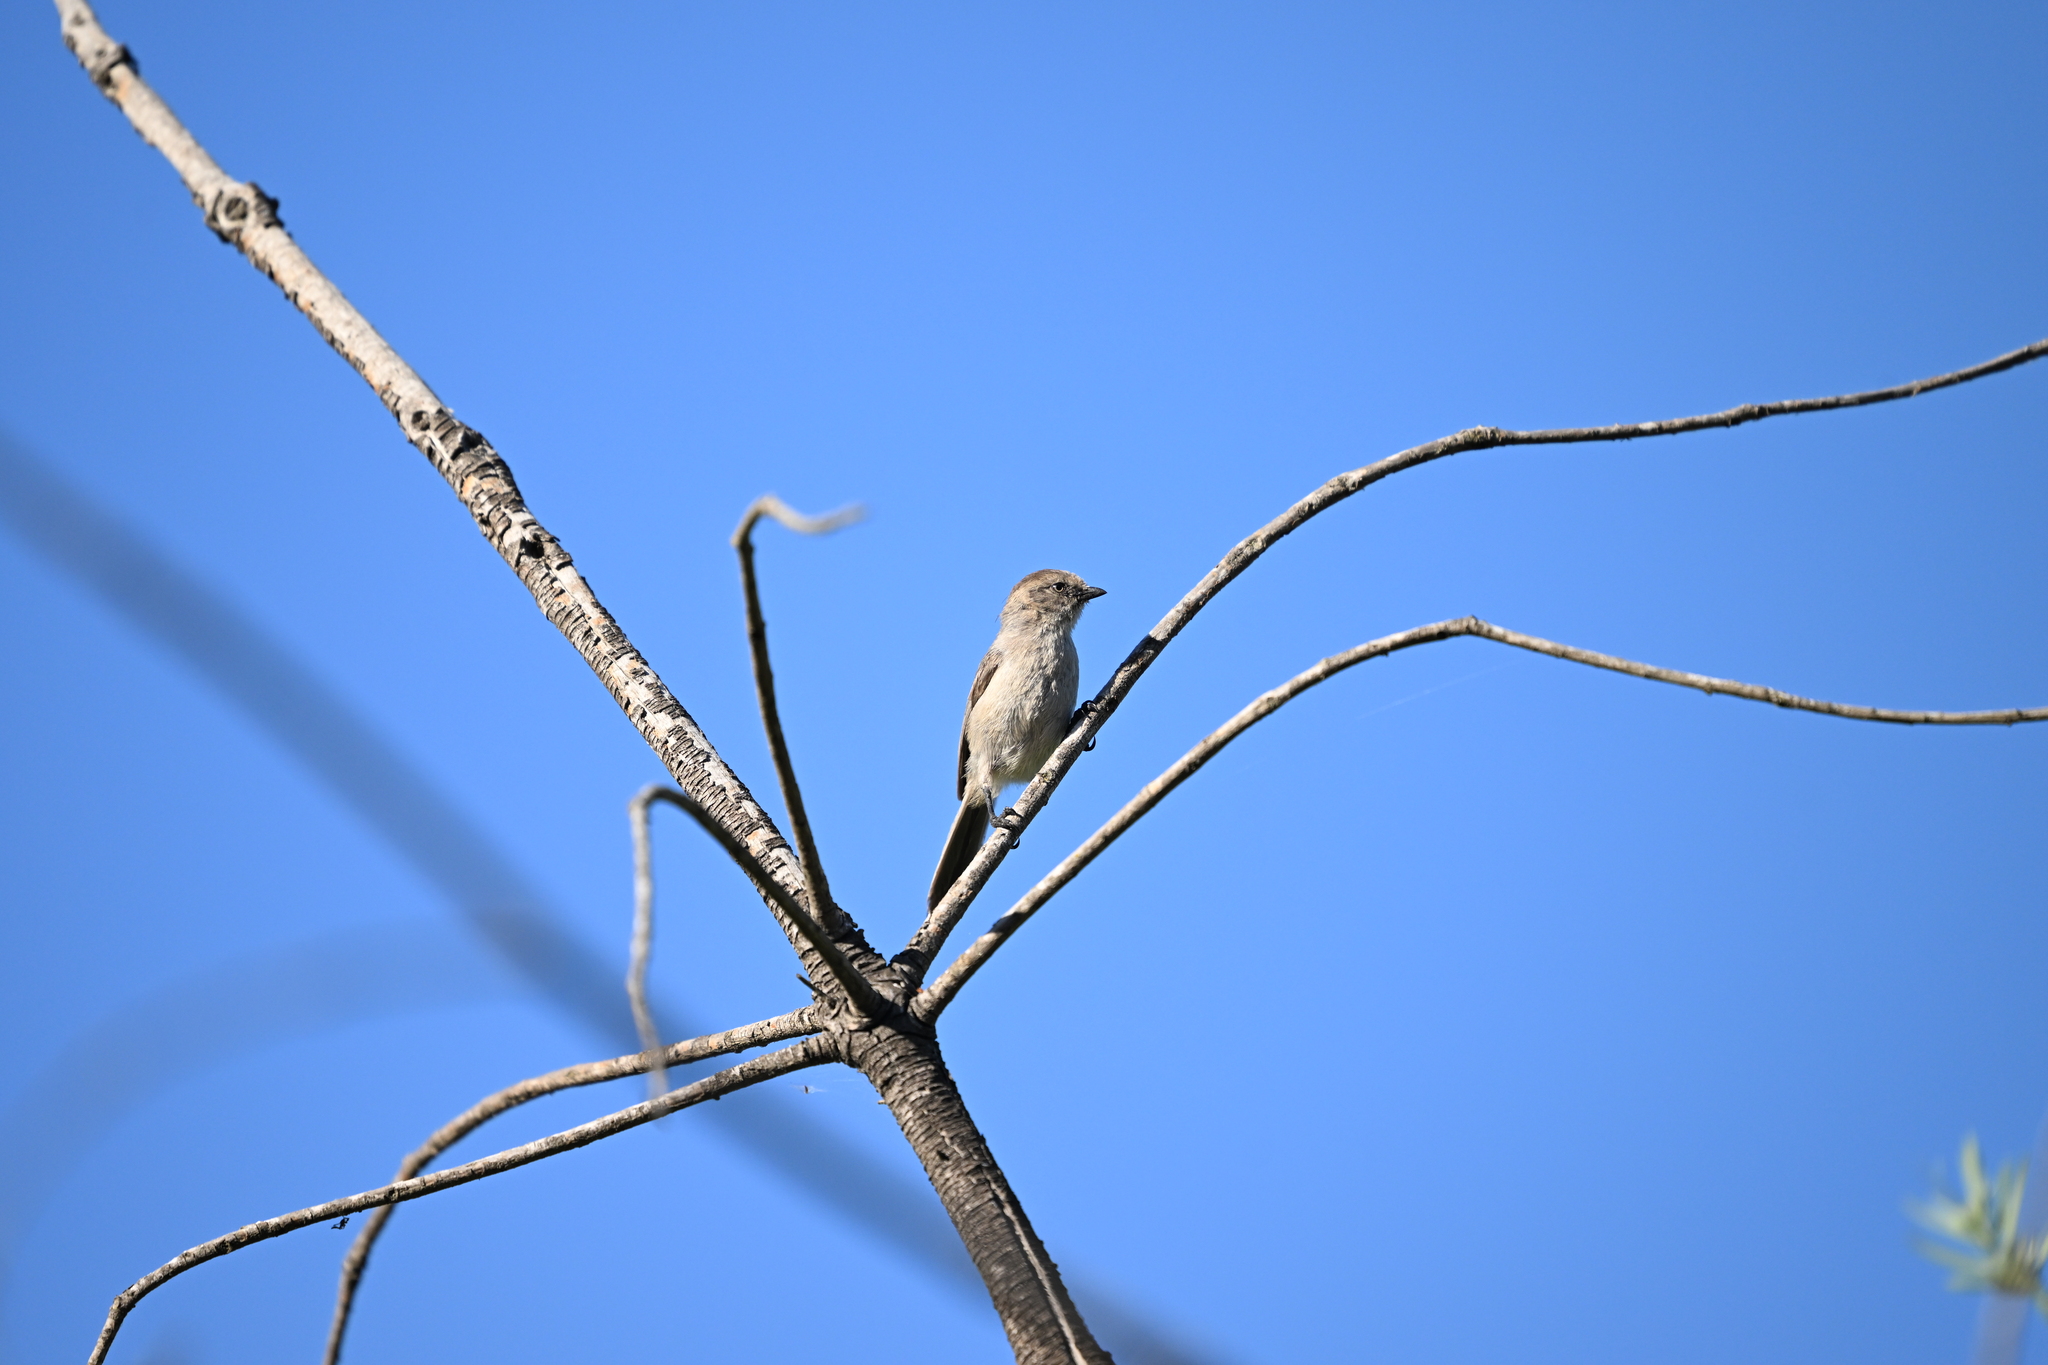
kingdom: Animalia
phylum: Chordata
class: Aves
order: Passeriformes
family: Aegithalidae
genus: Psaltriparus
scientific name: Psaltriparus minimus
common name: American bushtit
